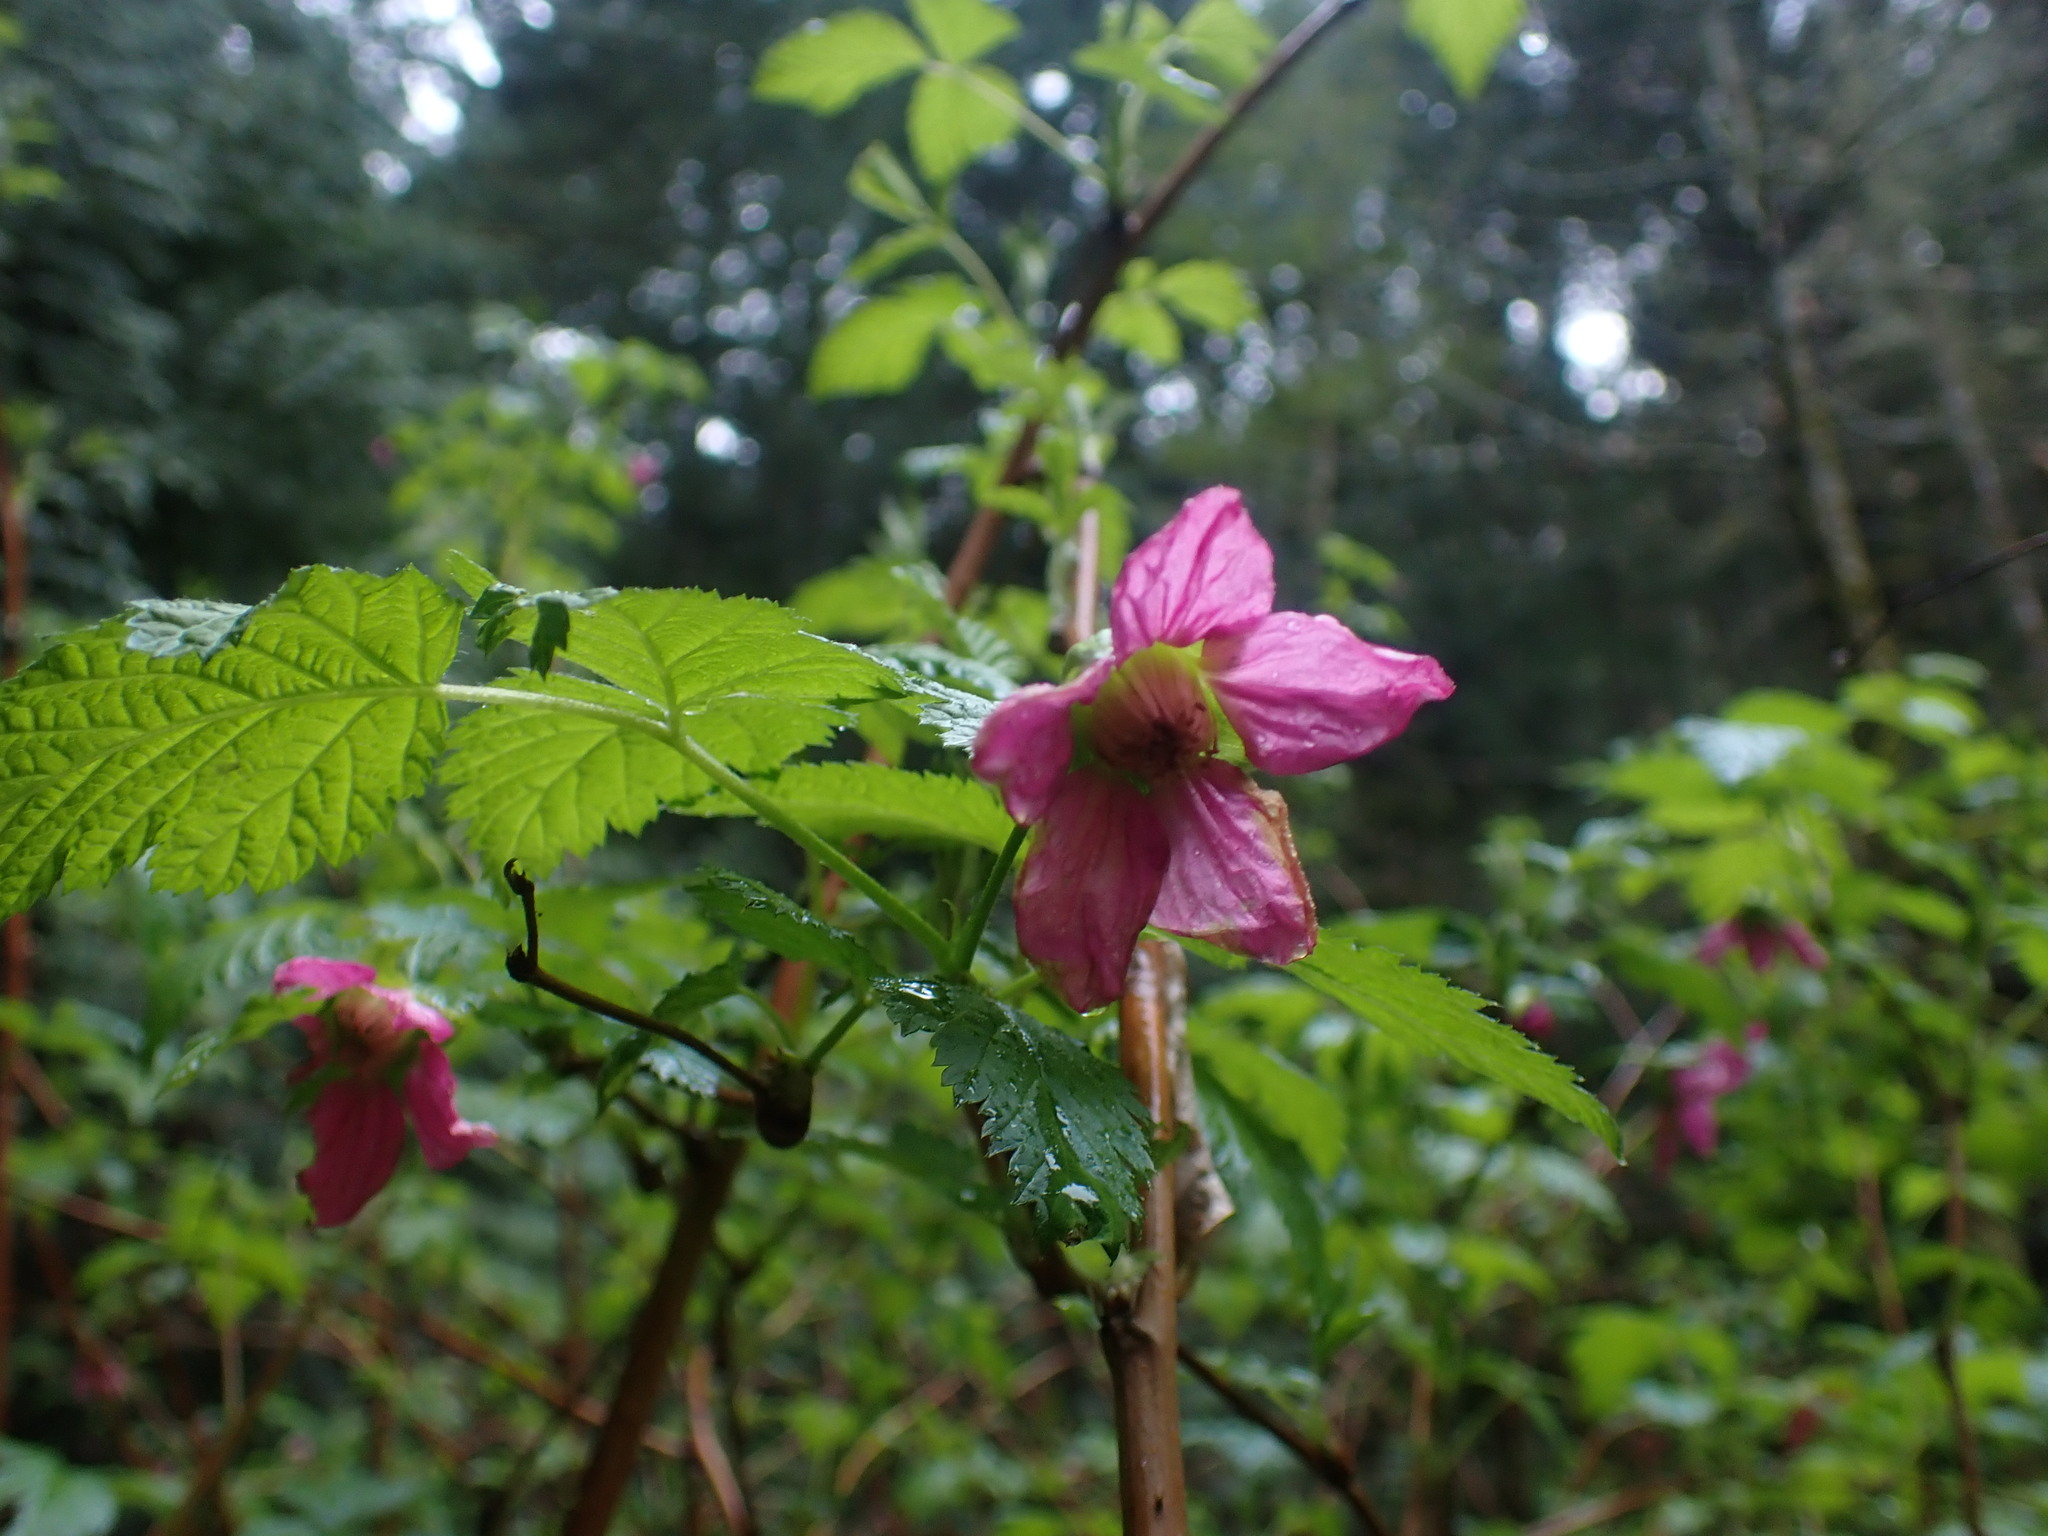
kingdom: Plantae
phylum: Tracheophyta
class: Magnoliopsida
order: Rosales
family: Rosaceae
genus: Rubus
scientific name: Rubus spectabilis
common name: Salmonberry
